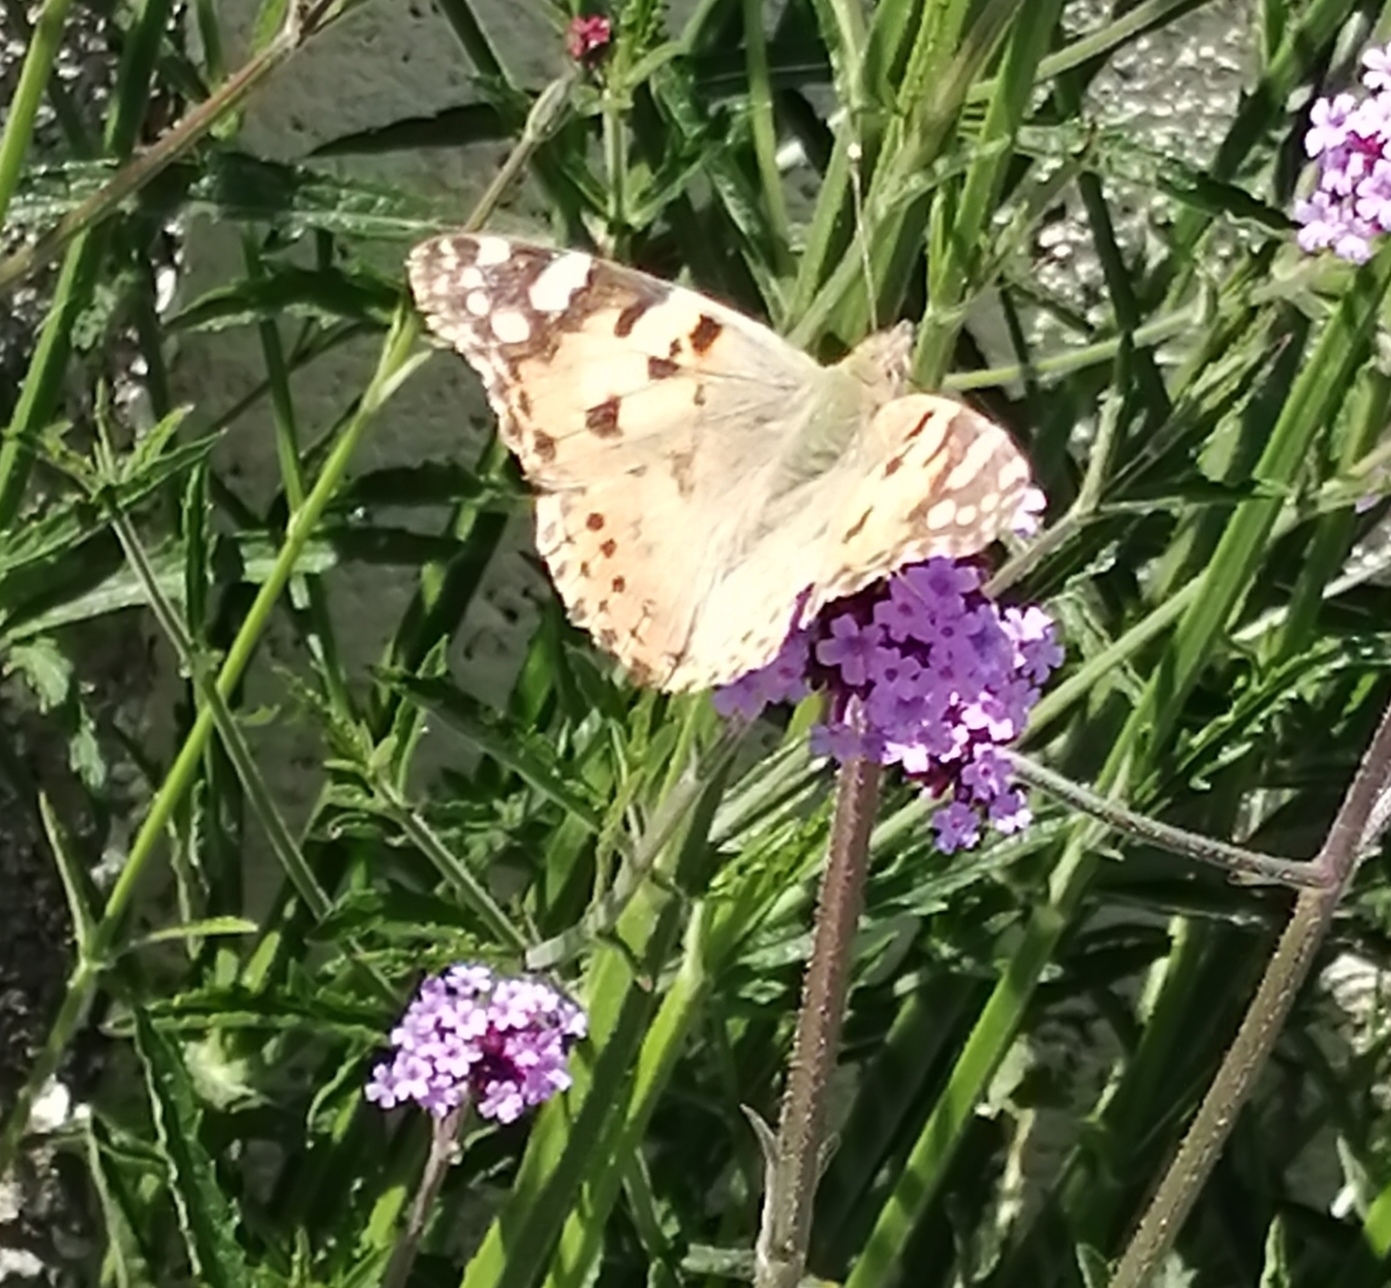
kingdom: Animalia
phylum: Arthropoda
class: Insecta
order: Lepidoptera
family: Nymphalidae
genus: Vanessa
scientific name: Vanessa cardui
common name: Painted lady
